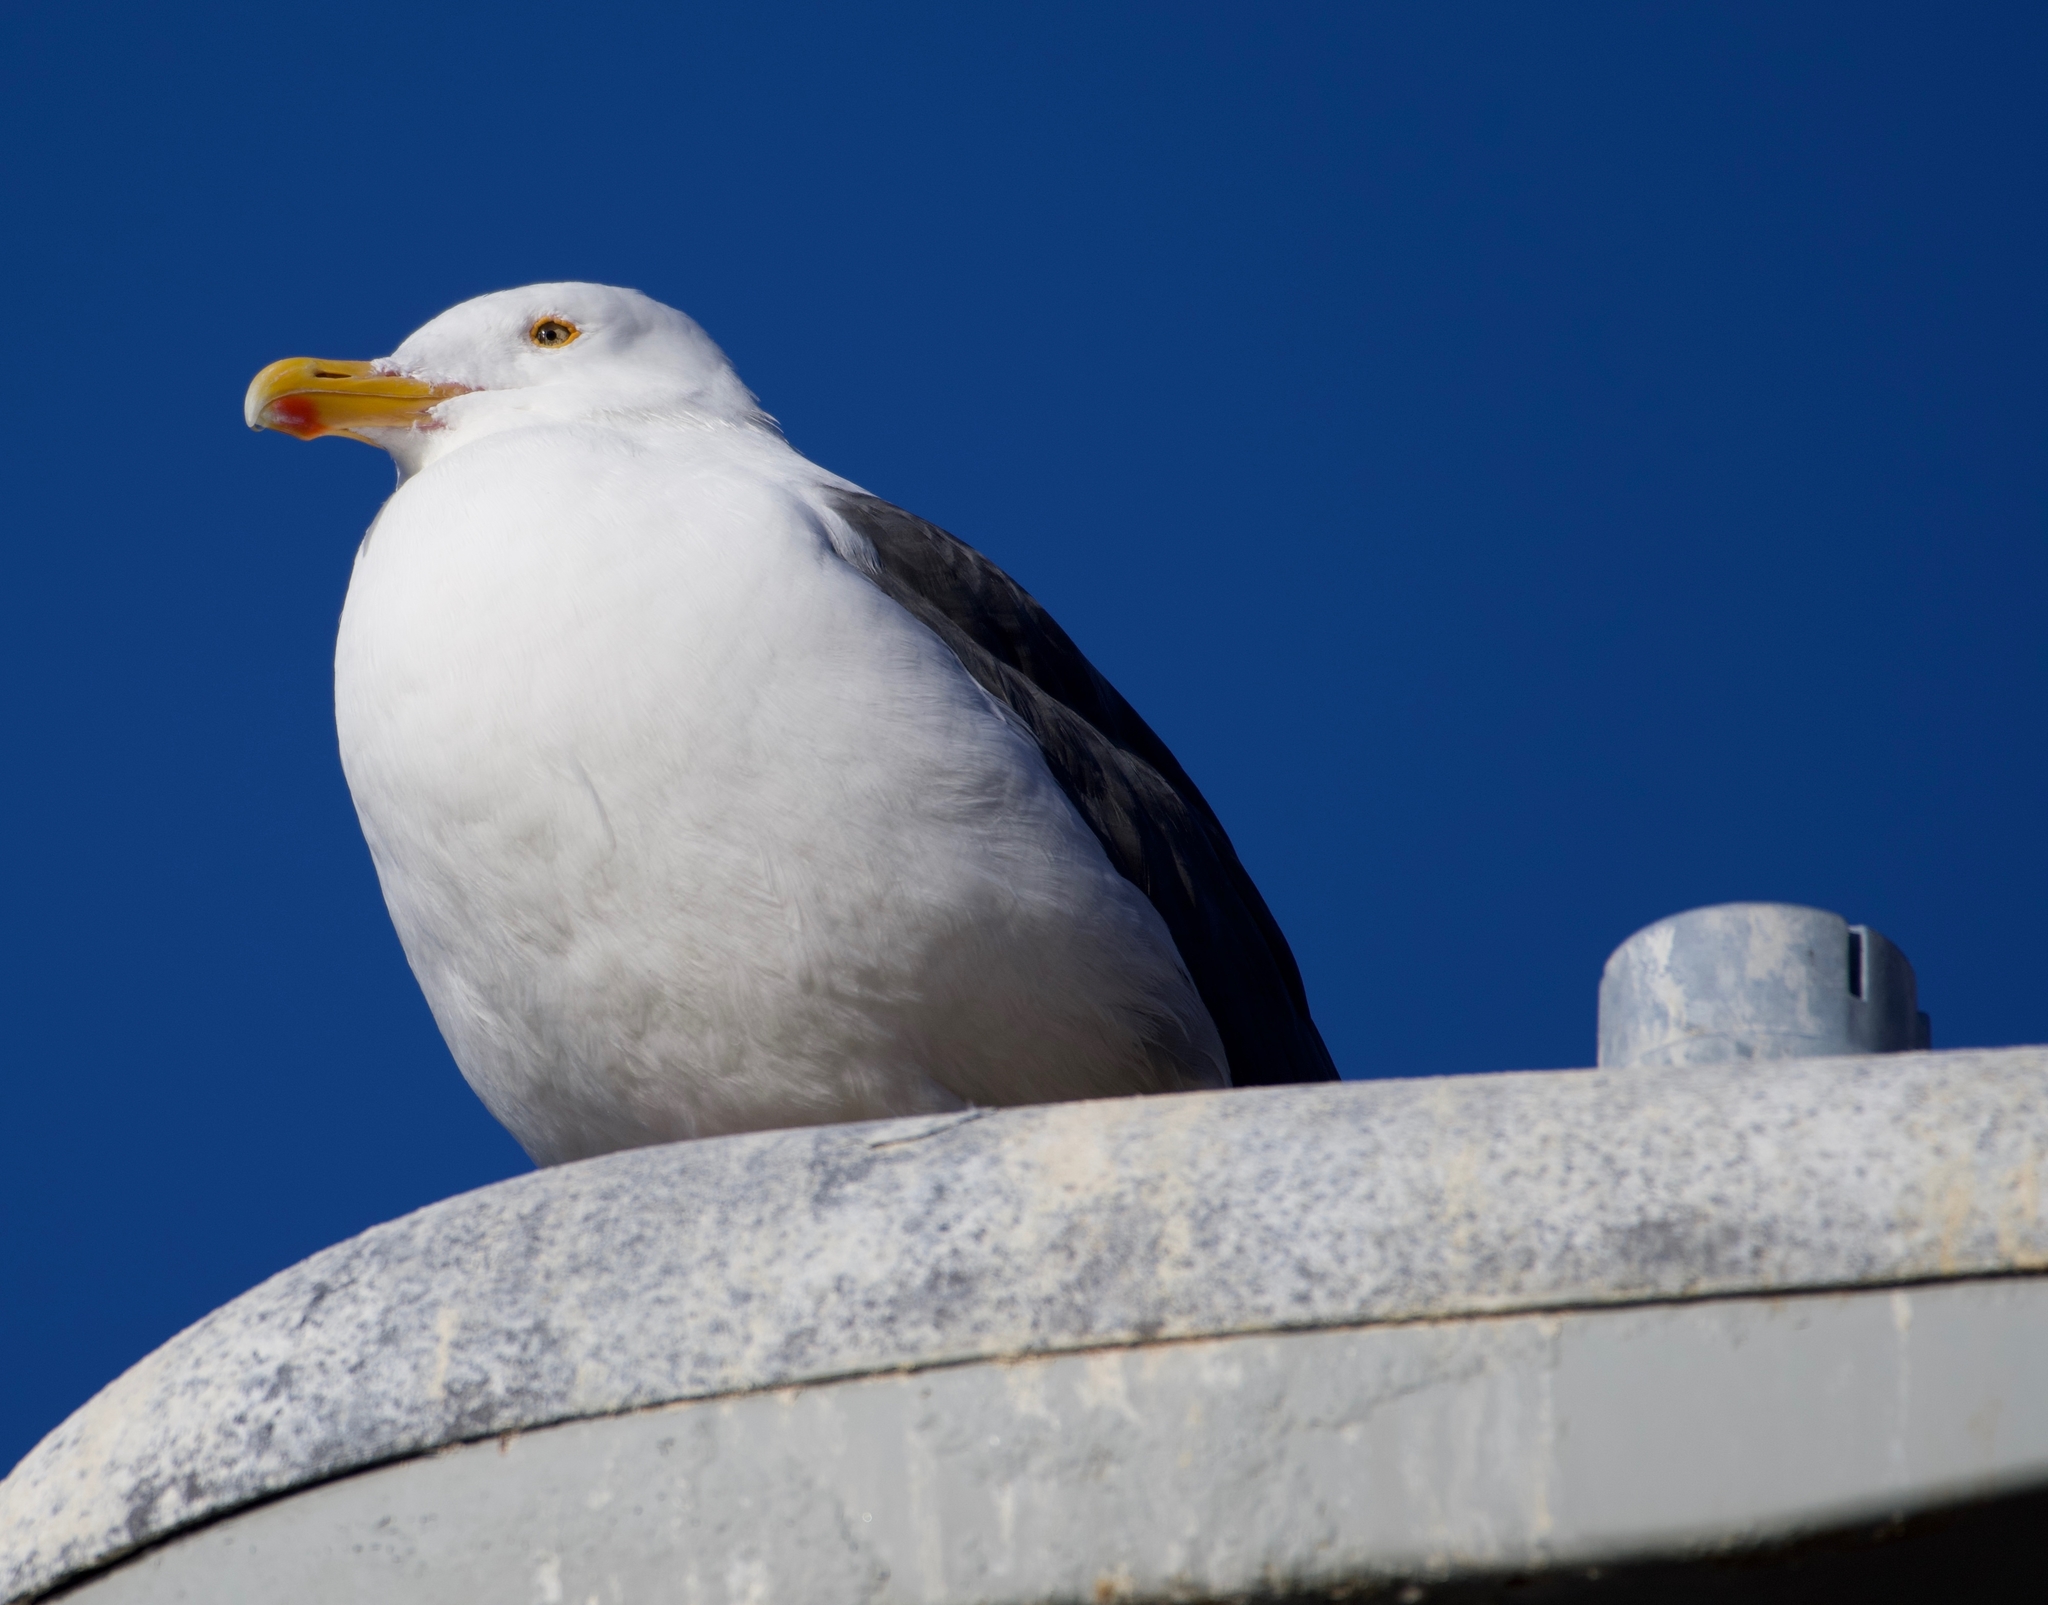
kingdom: Animalia
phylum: Chordata
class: Aves
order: Charadriiformes
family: Laridae
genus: Larus
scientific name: Larus occidentalis
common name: Western gull
